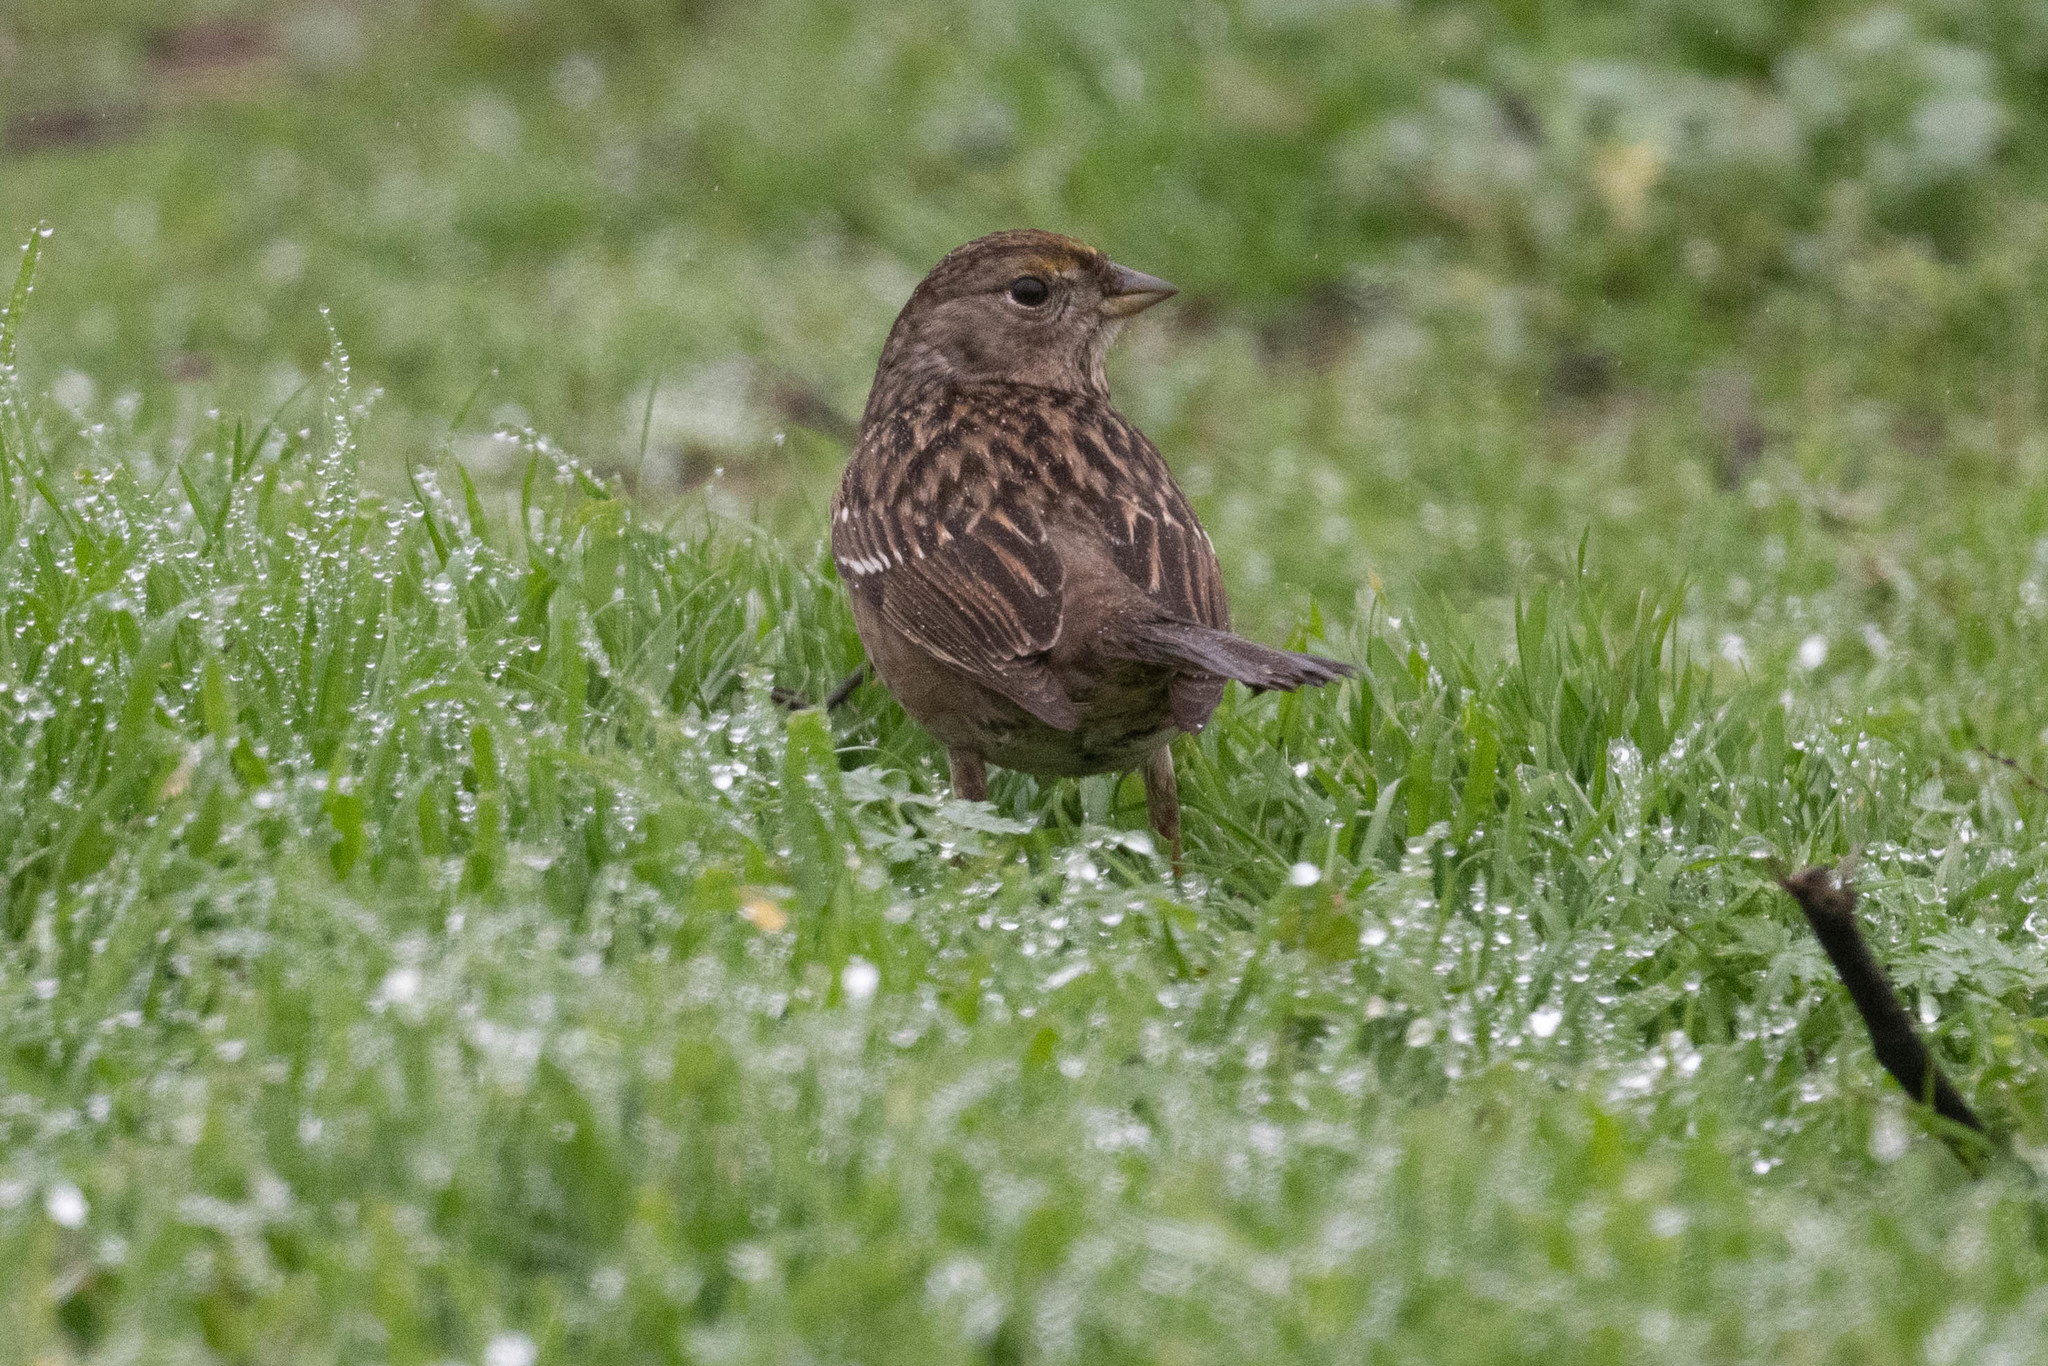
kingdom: Animalia
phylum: Chordata
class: Aves
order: Passeriformes
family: Passerellidae
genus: Zonotrichia
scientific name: Zonotrichia atricapilla
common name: Golden-crowned sparrow
